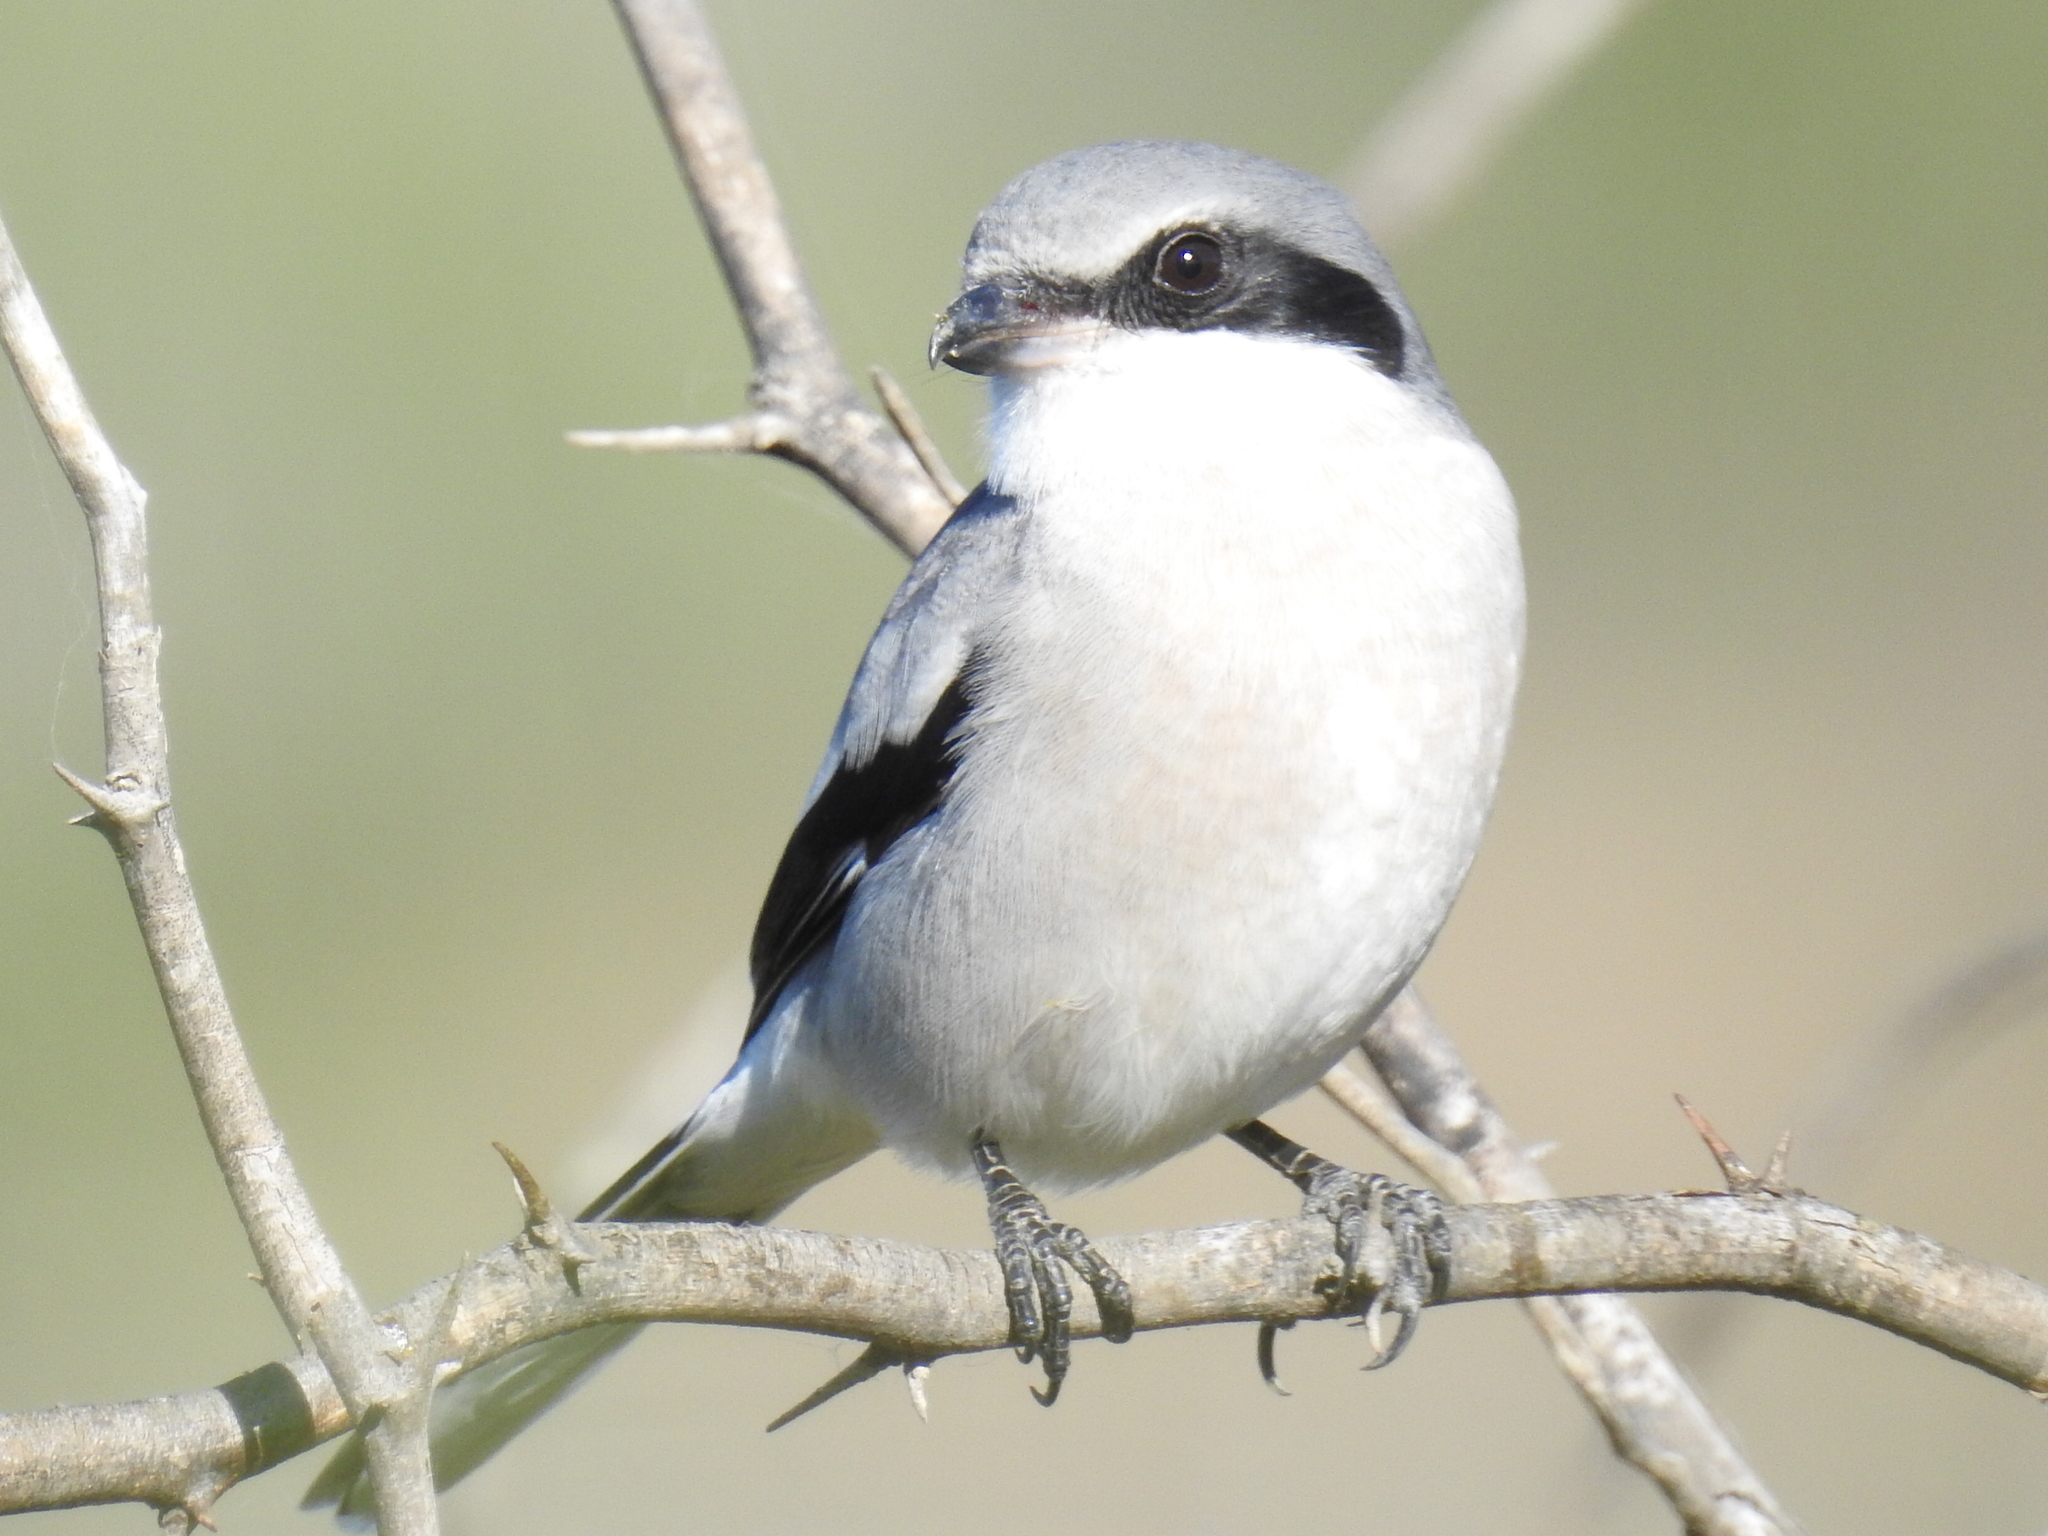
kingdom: Animalia
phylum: Chordata
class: Aves
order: Passeriformes
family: Laniidae
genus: Lanius
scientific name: Lanius ludovicianus
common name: Loggerhead shrike
